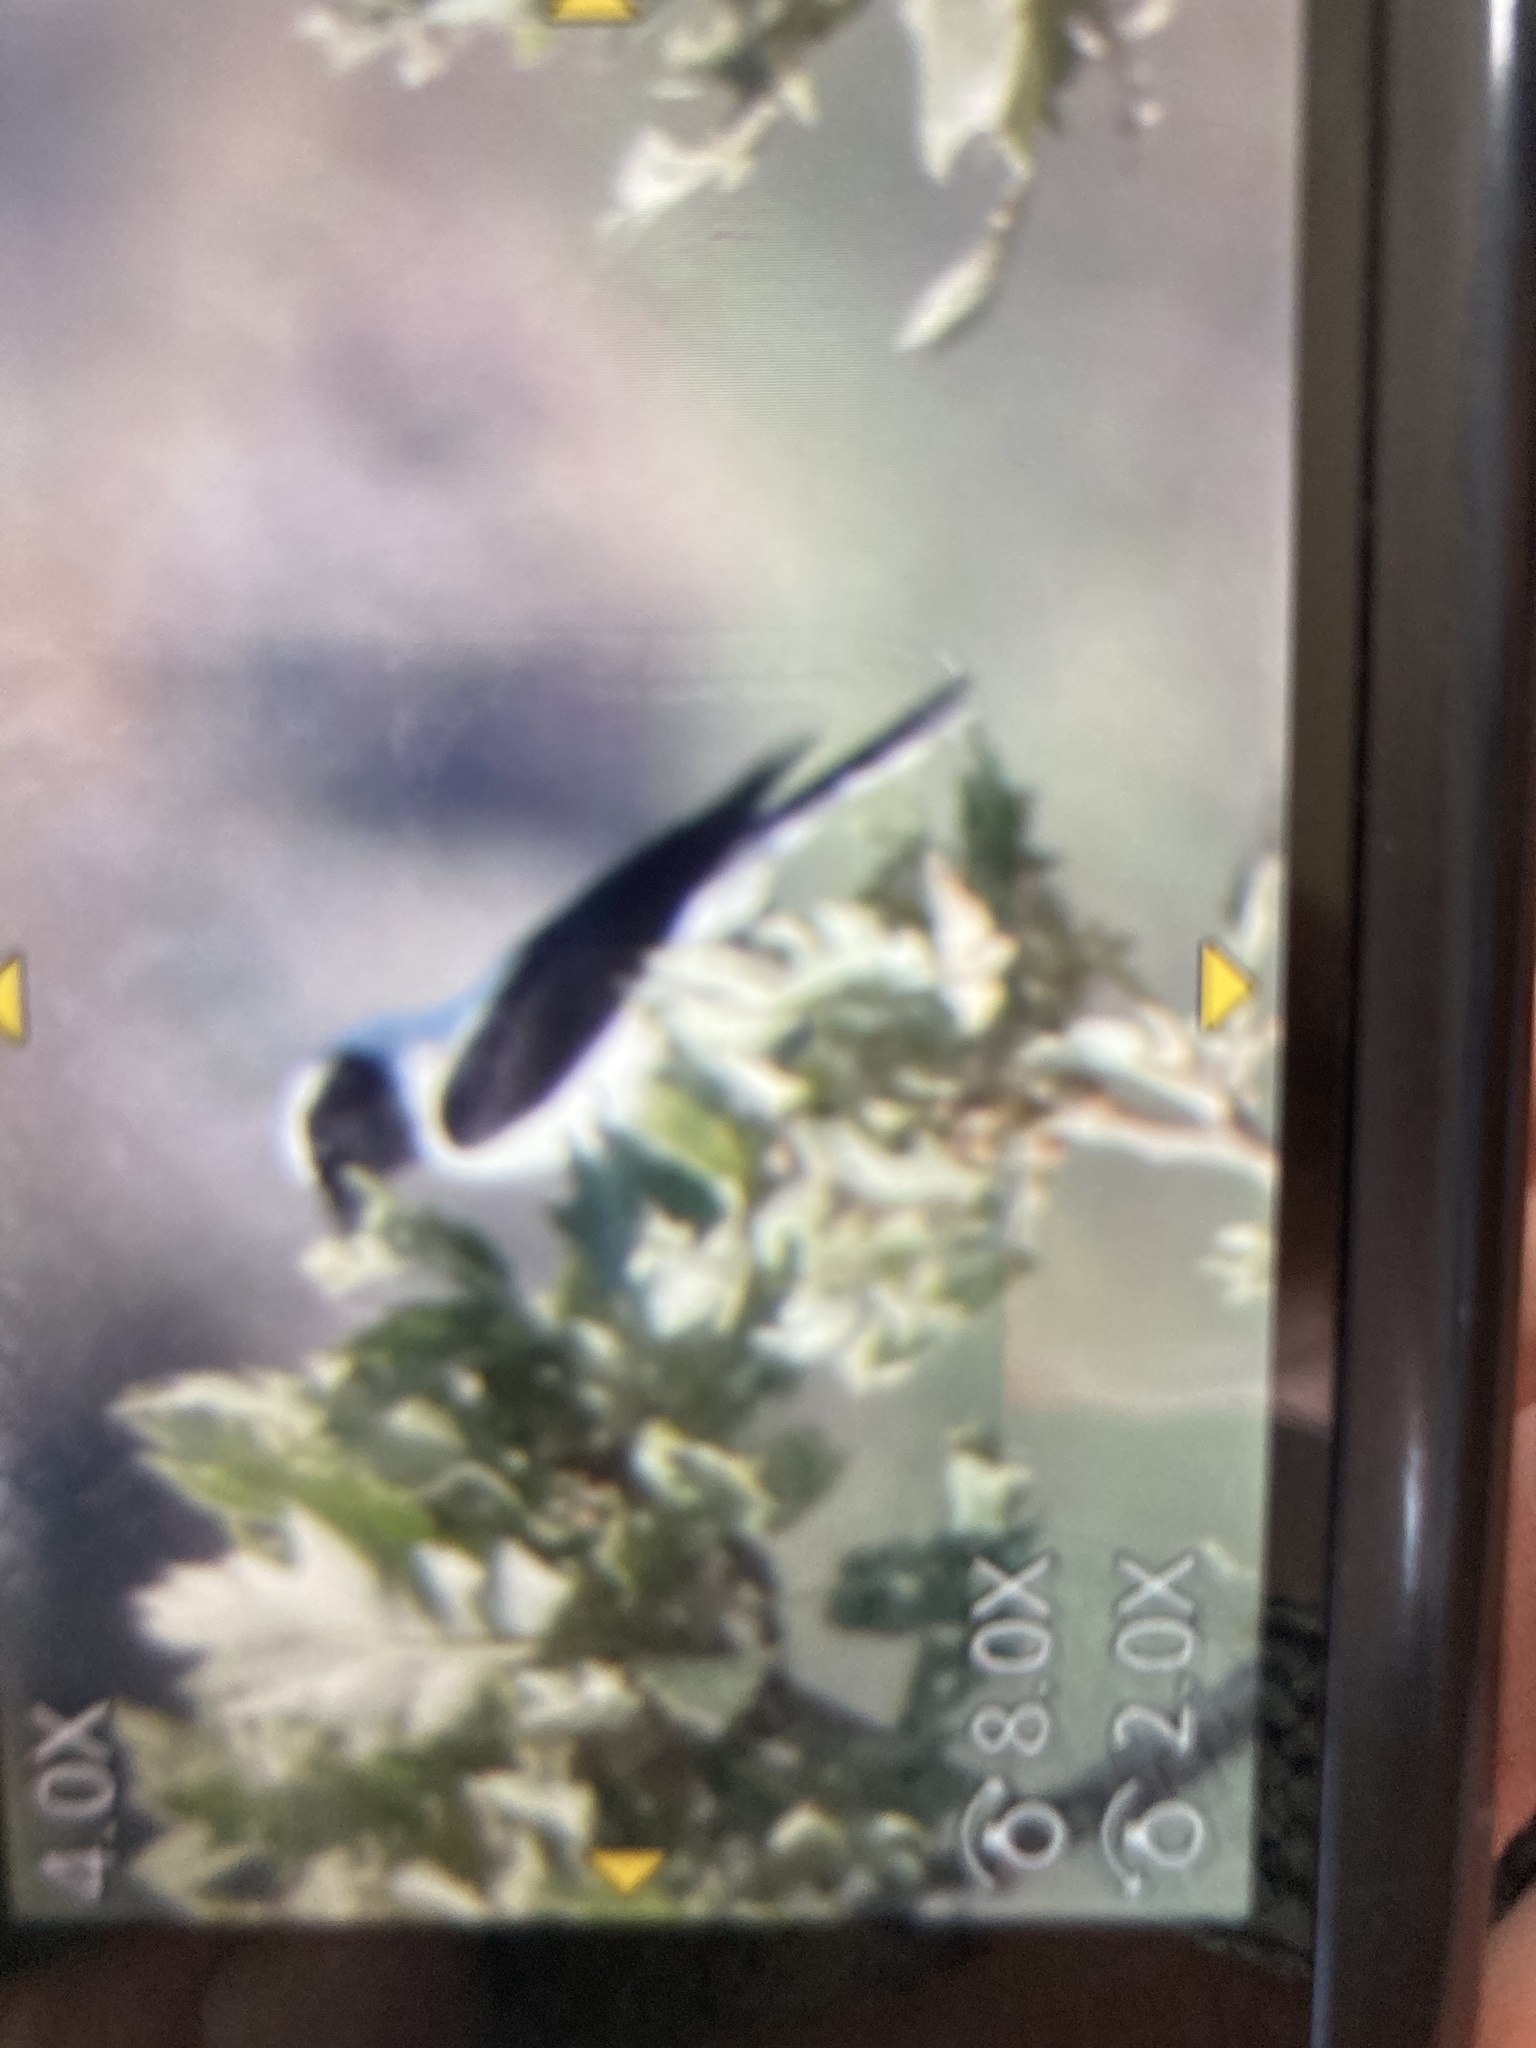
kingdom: Animalia
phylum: Chordata
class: Aves
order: Passeriformes
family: Muscicapidae
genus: Oenanthe
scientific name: Oenanthe hispanica
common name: Black-eared wheatear
